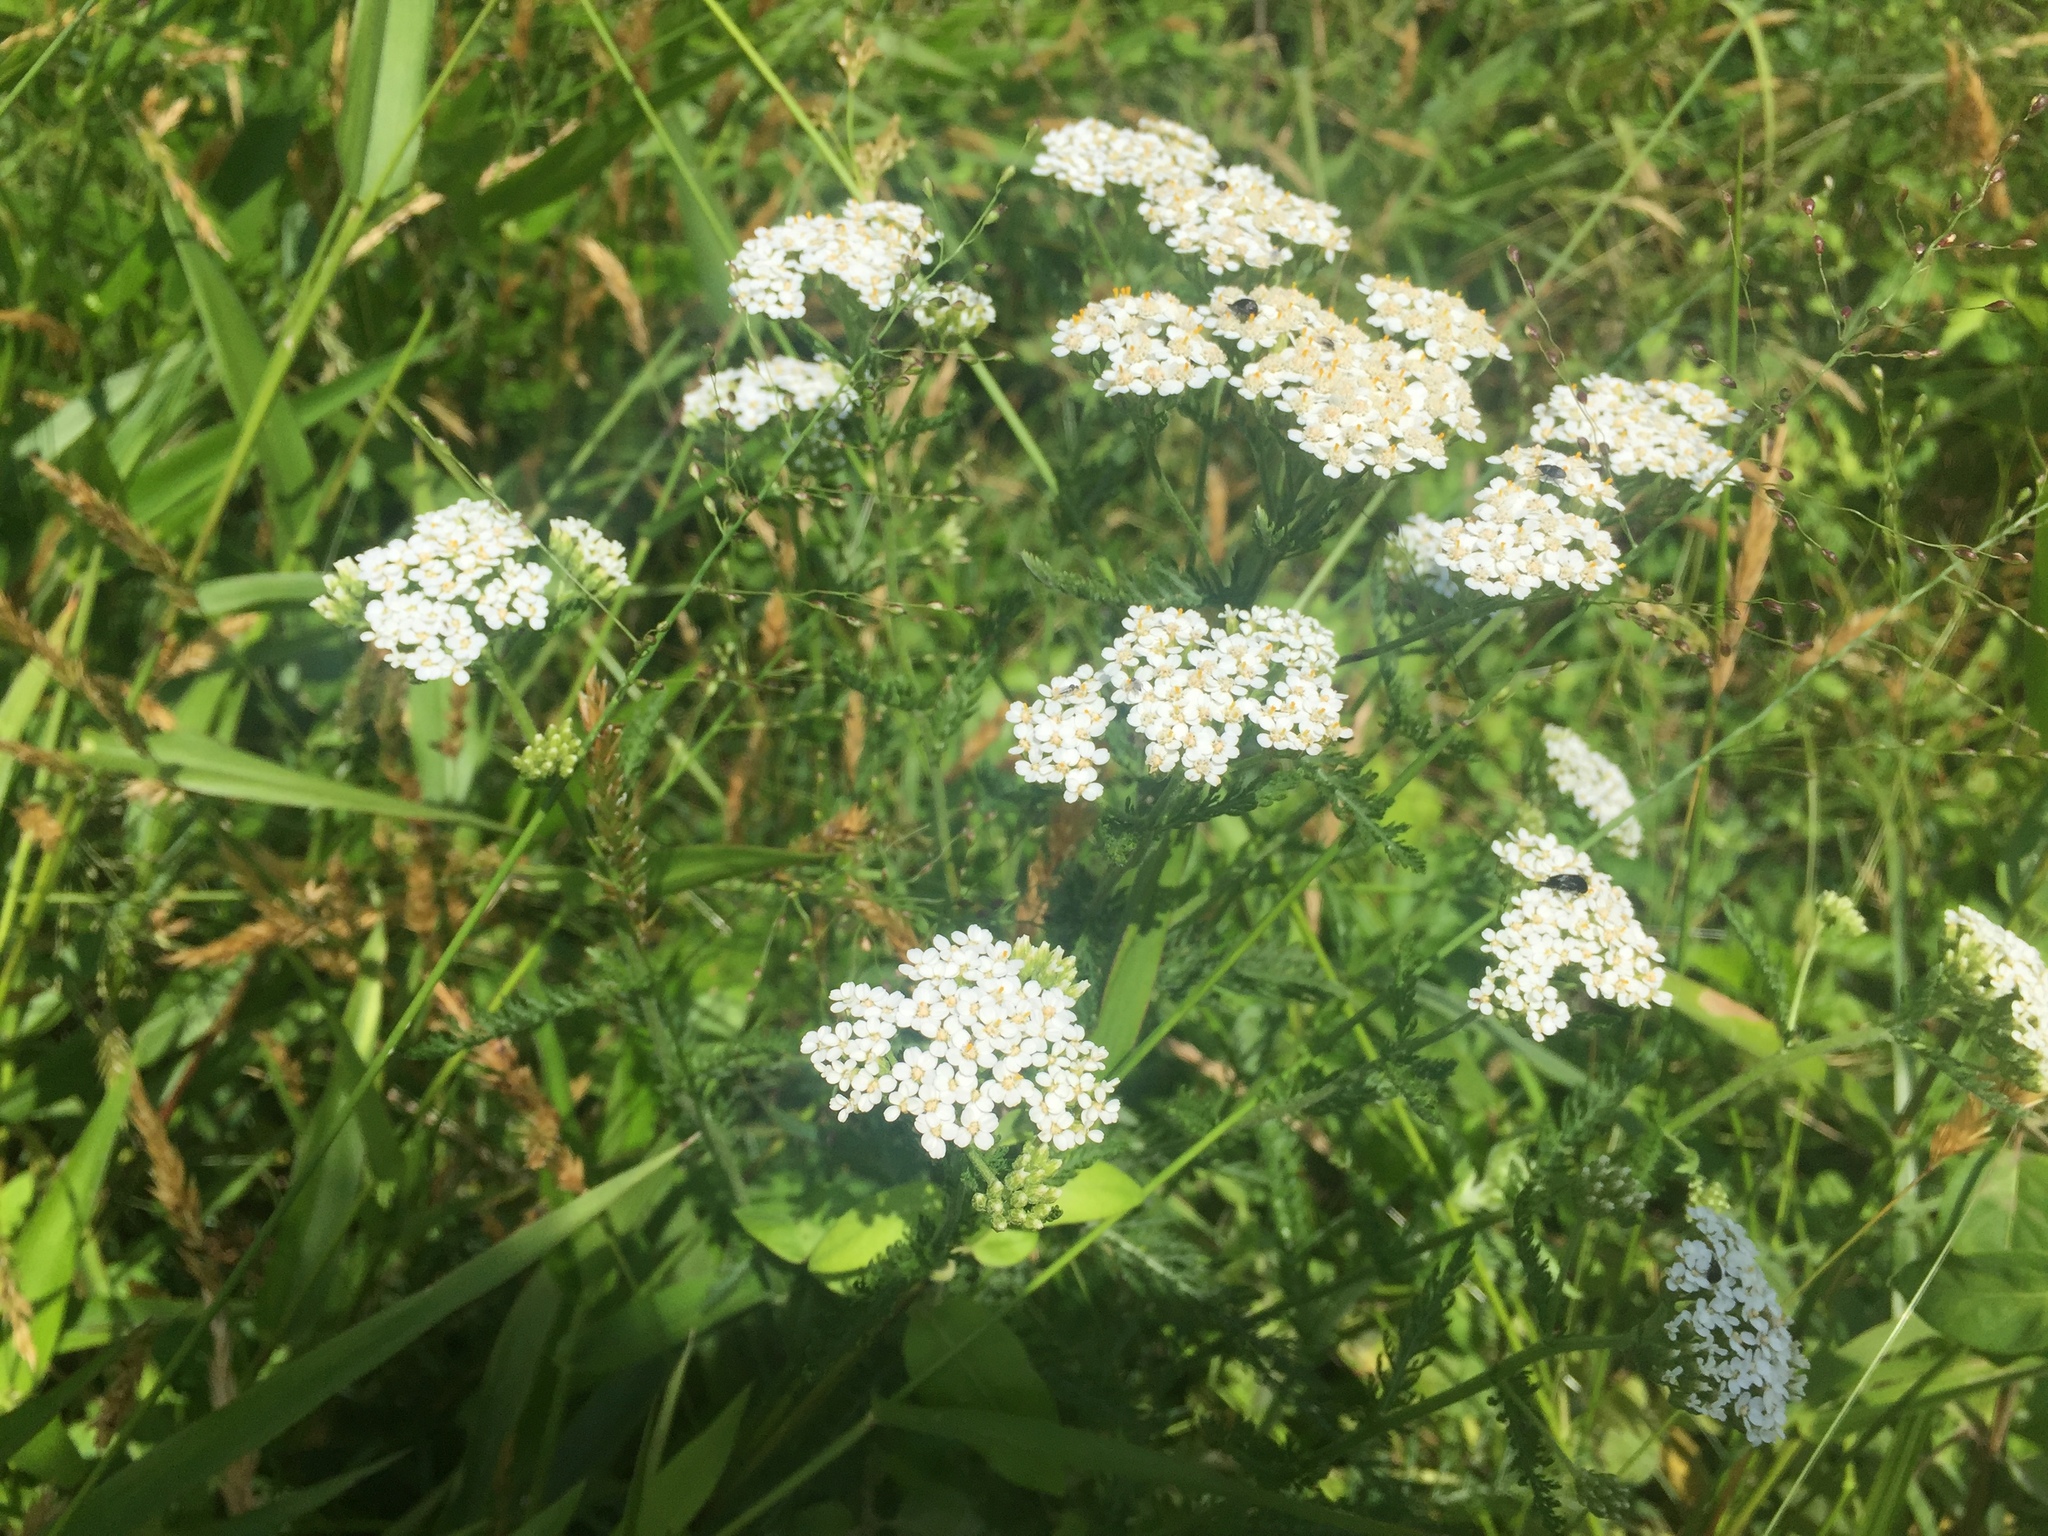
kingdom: Plantae
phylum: Tracheophyta
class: Magnoliopsida
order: Asterales
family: Asteraceae
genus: Achillea
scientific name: Achillea millefolium
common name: Yarrow
